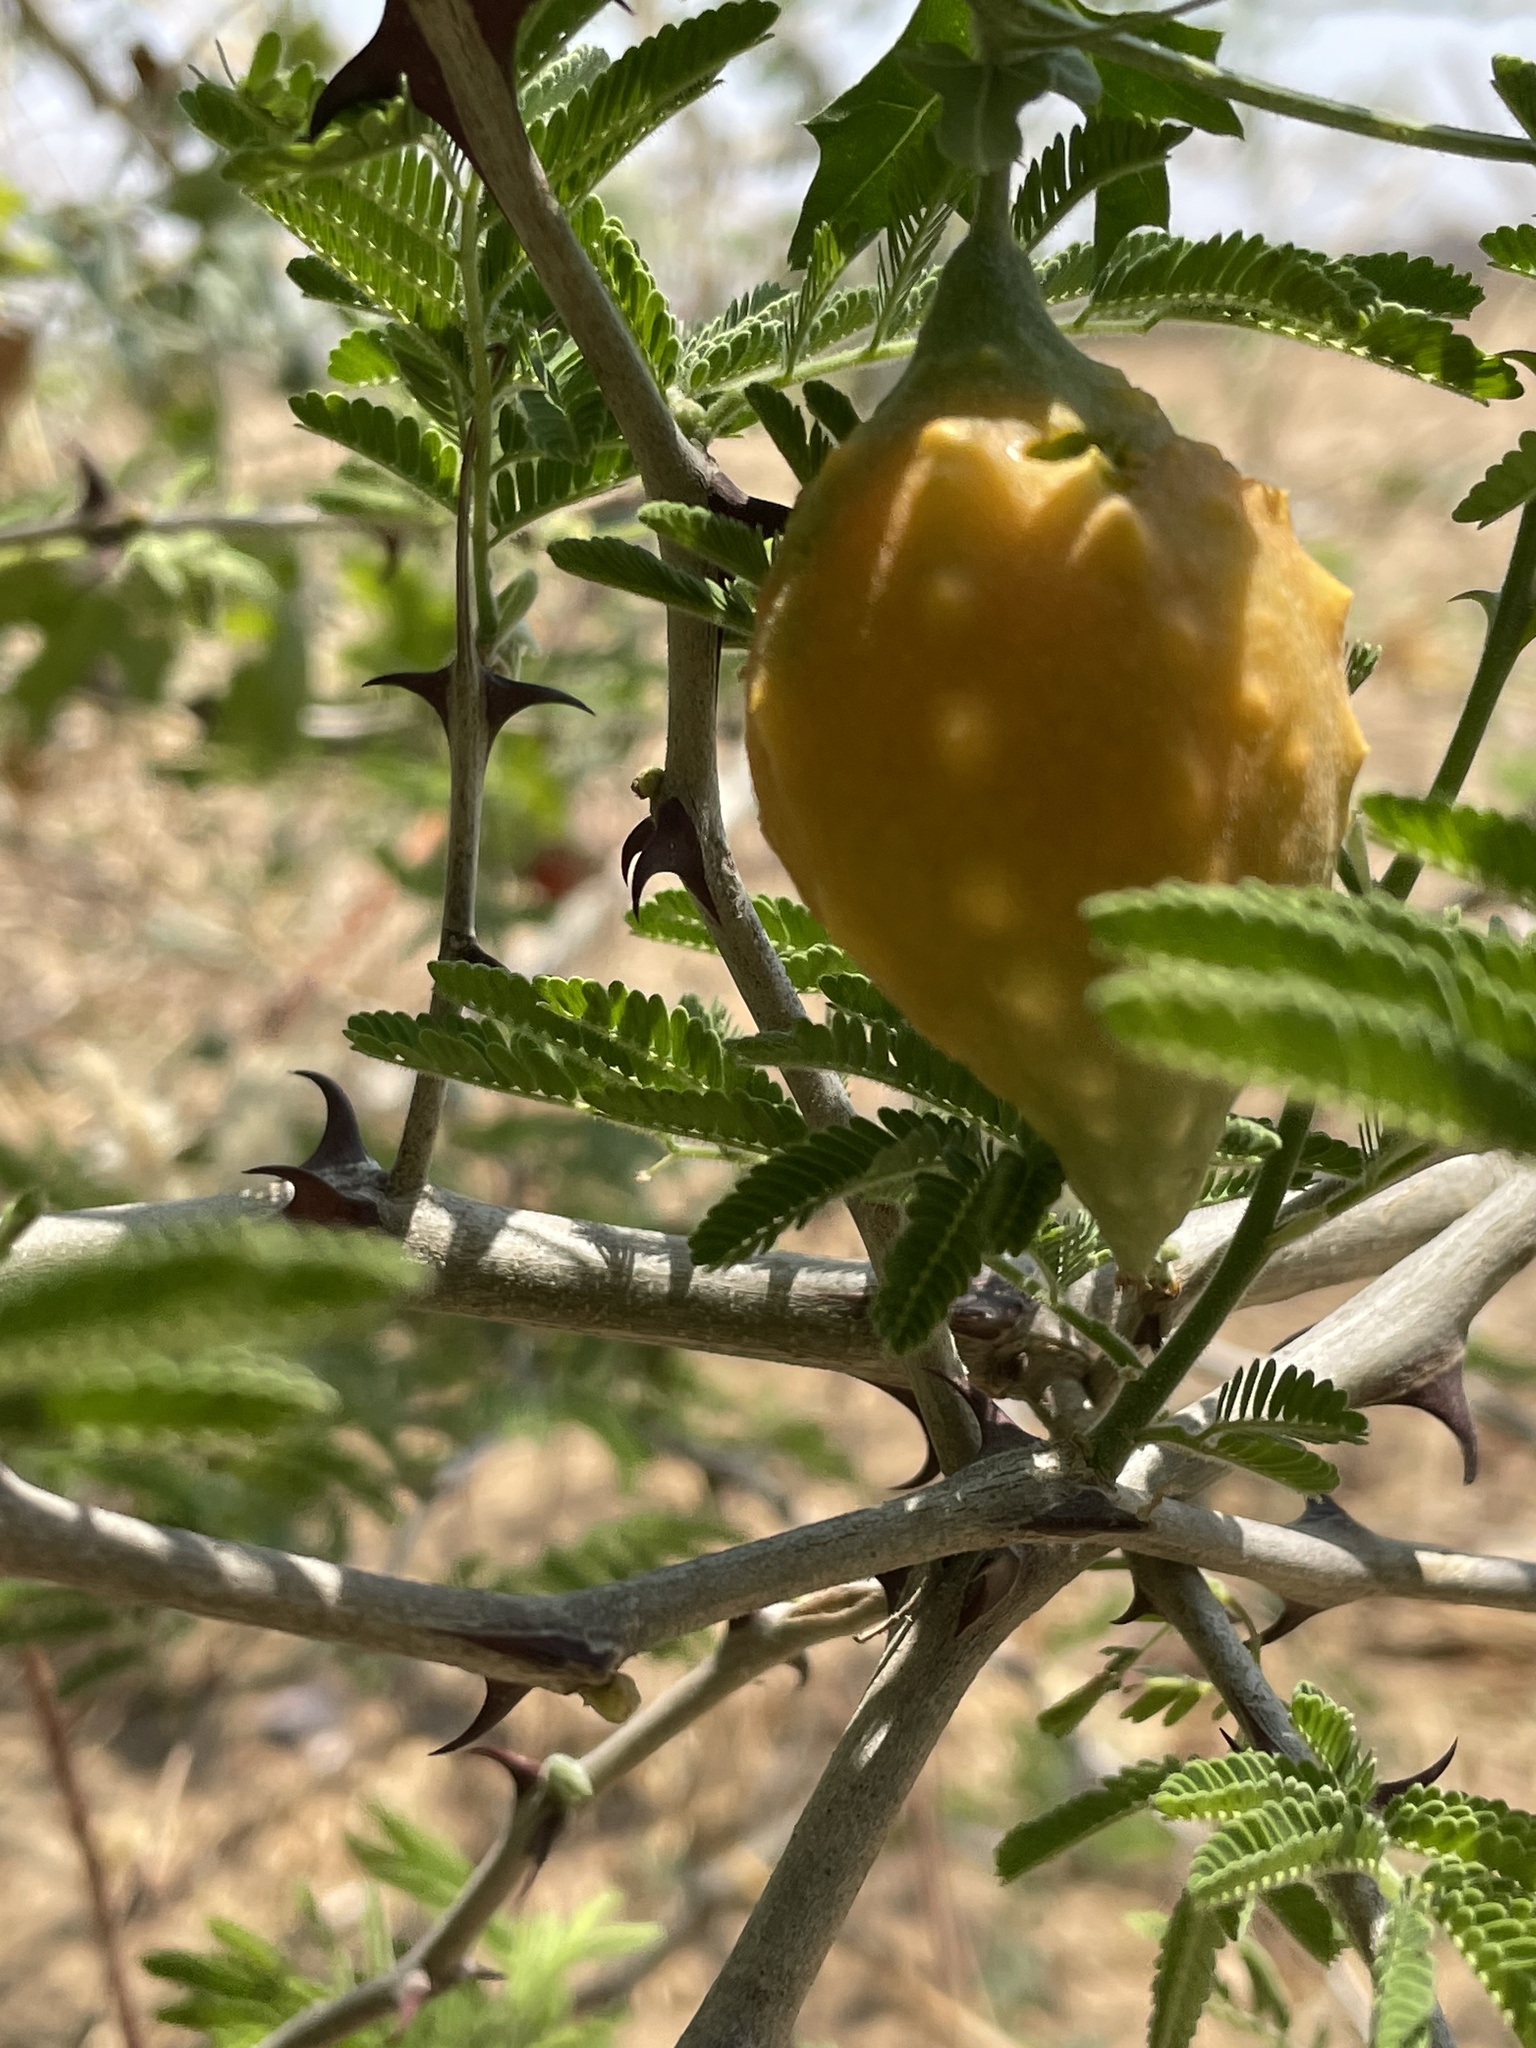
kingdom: Plantae
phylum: Tracheophyta
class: Magnoliopsida
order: Cucurbitales
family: Cucurbitaceae
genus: Momordica
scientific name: Momordica balsamina
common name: Southern balsampear
